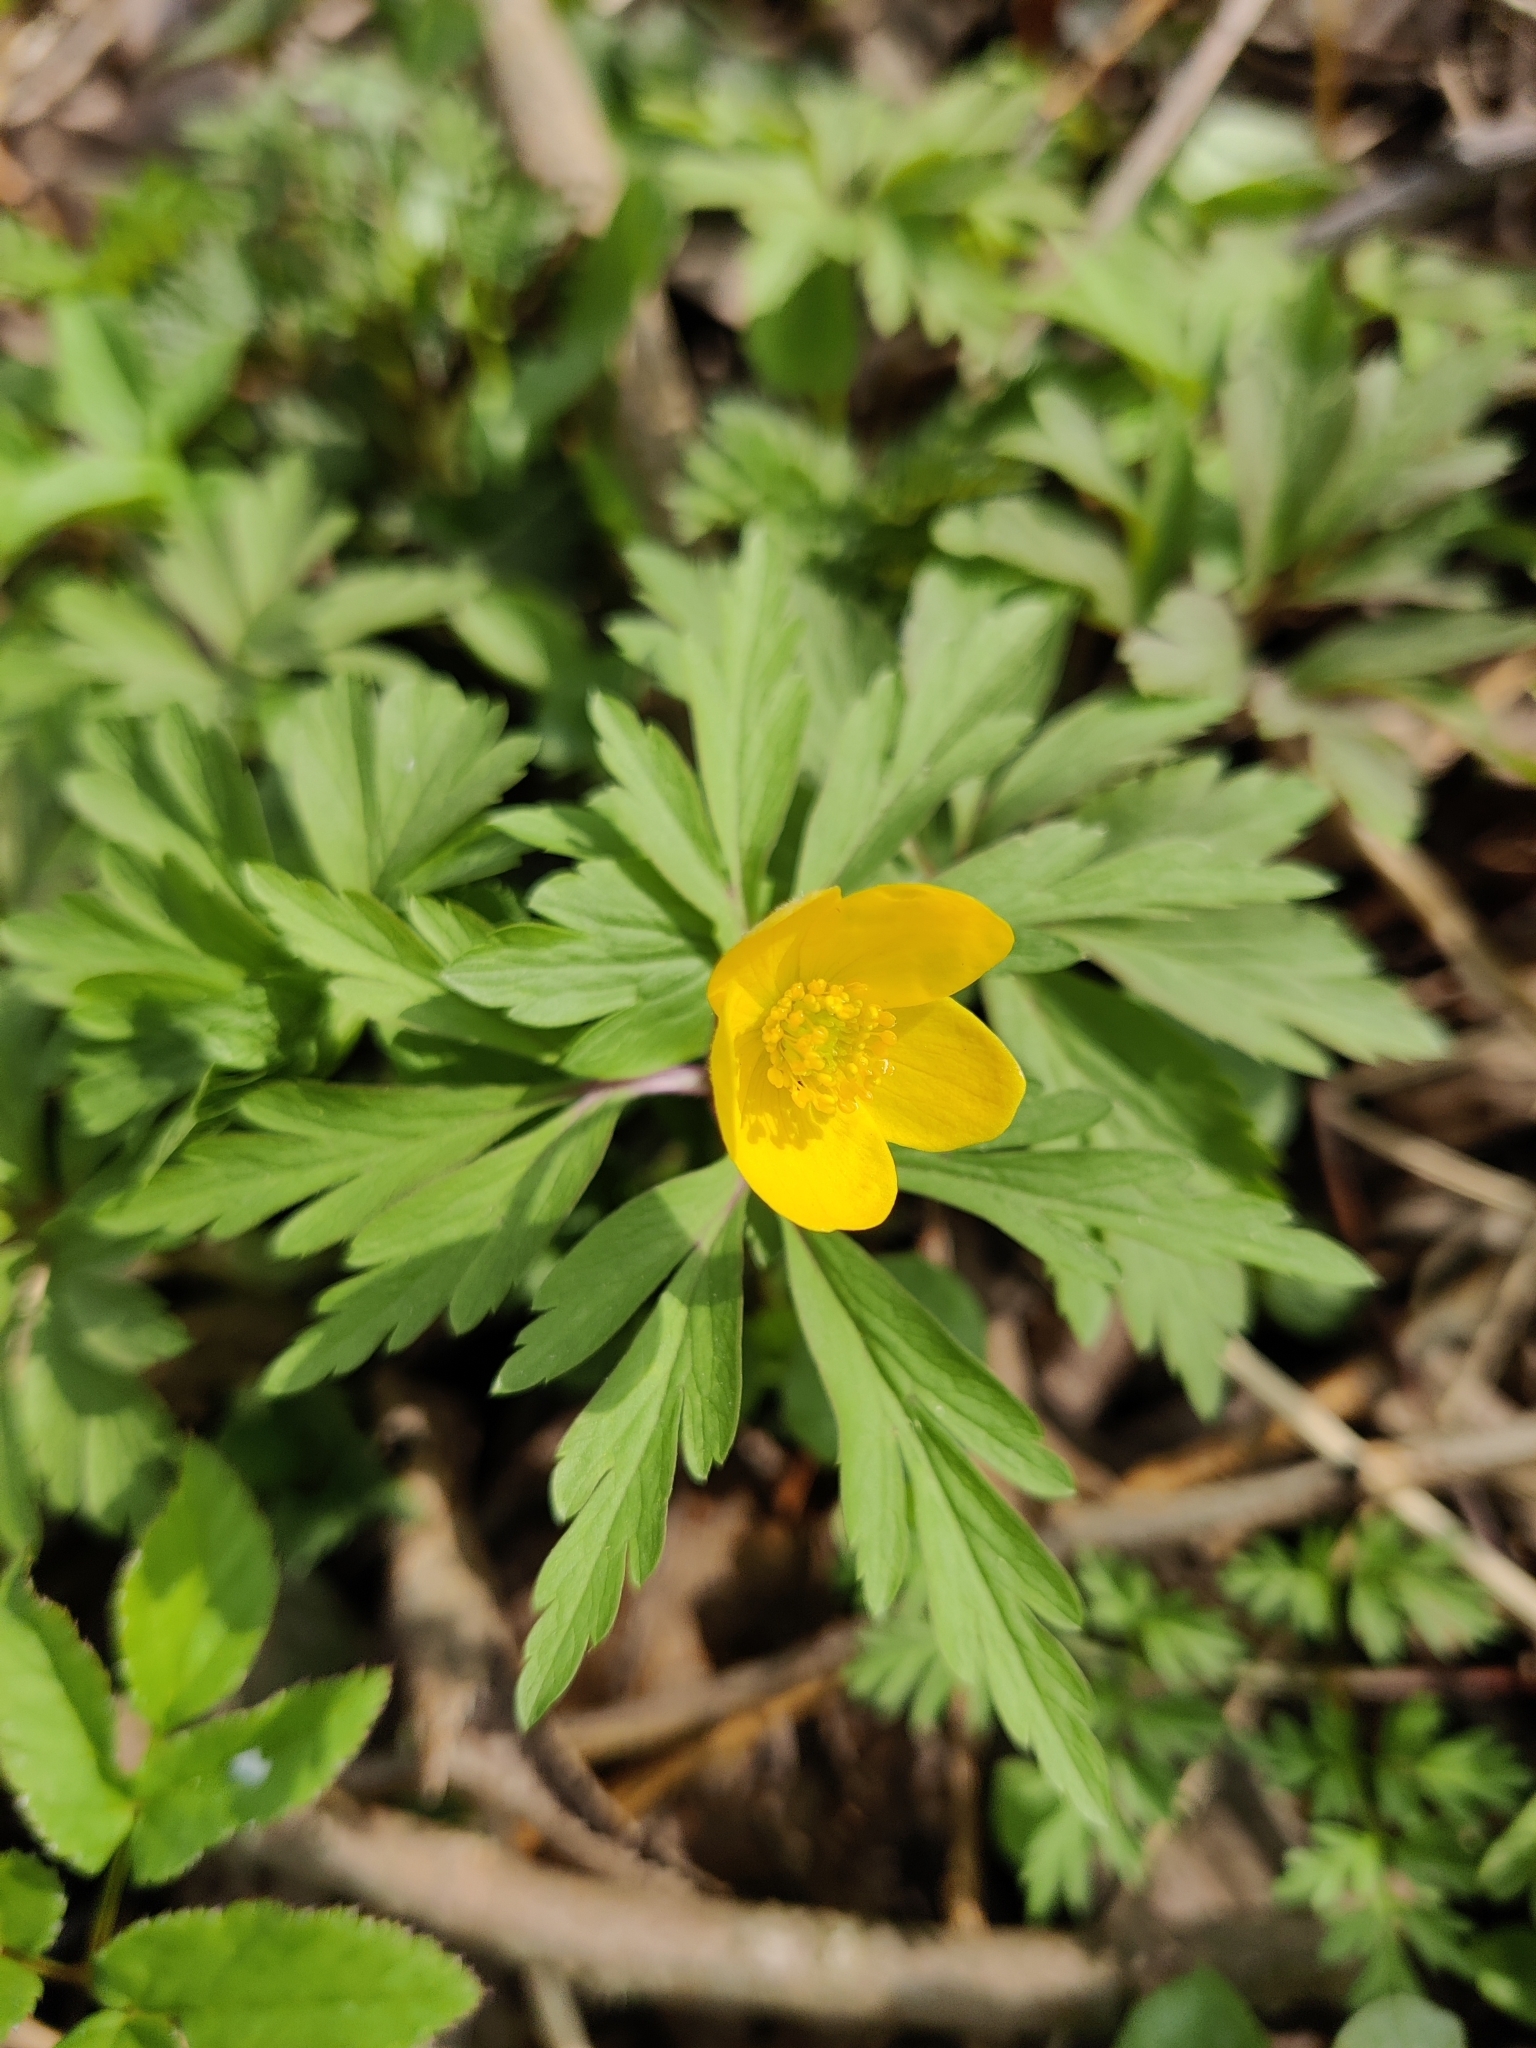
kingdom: Plantae
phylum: Tracheophyta
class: Magnoliopsida
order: Ranunculales
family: Ranunculaceae
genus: Anemone
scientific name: Anemone ranunculoides
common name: Yellow anemone
